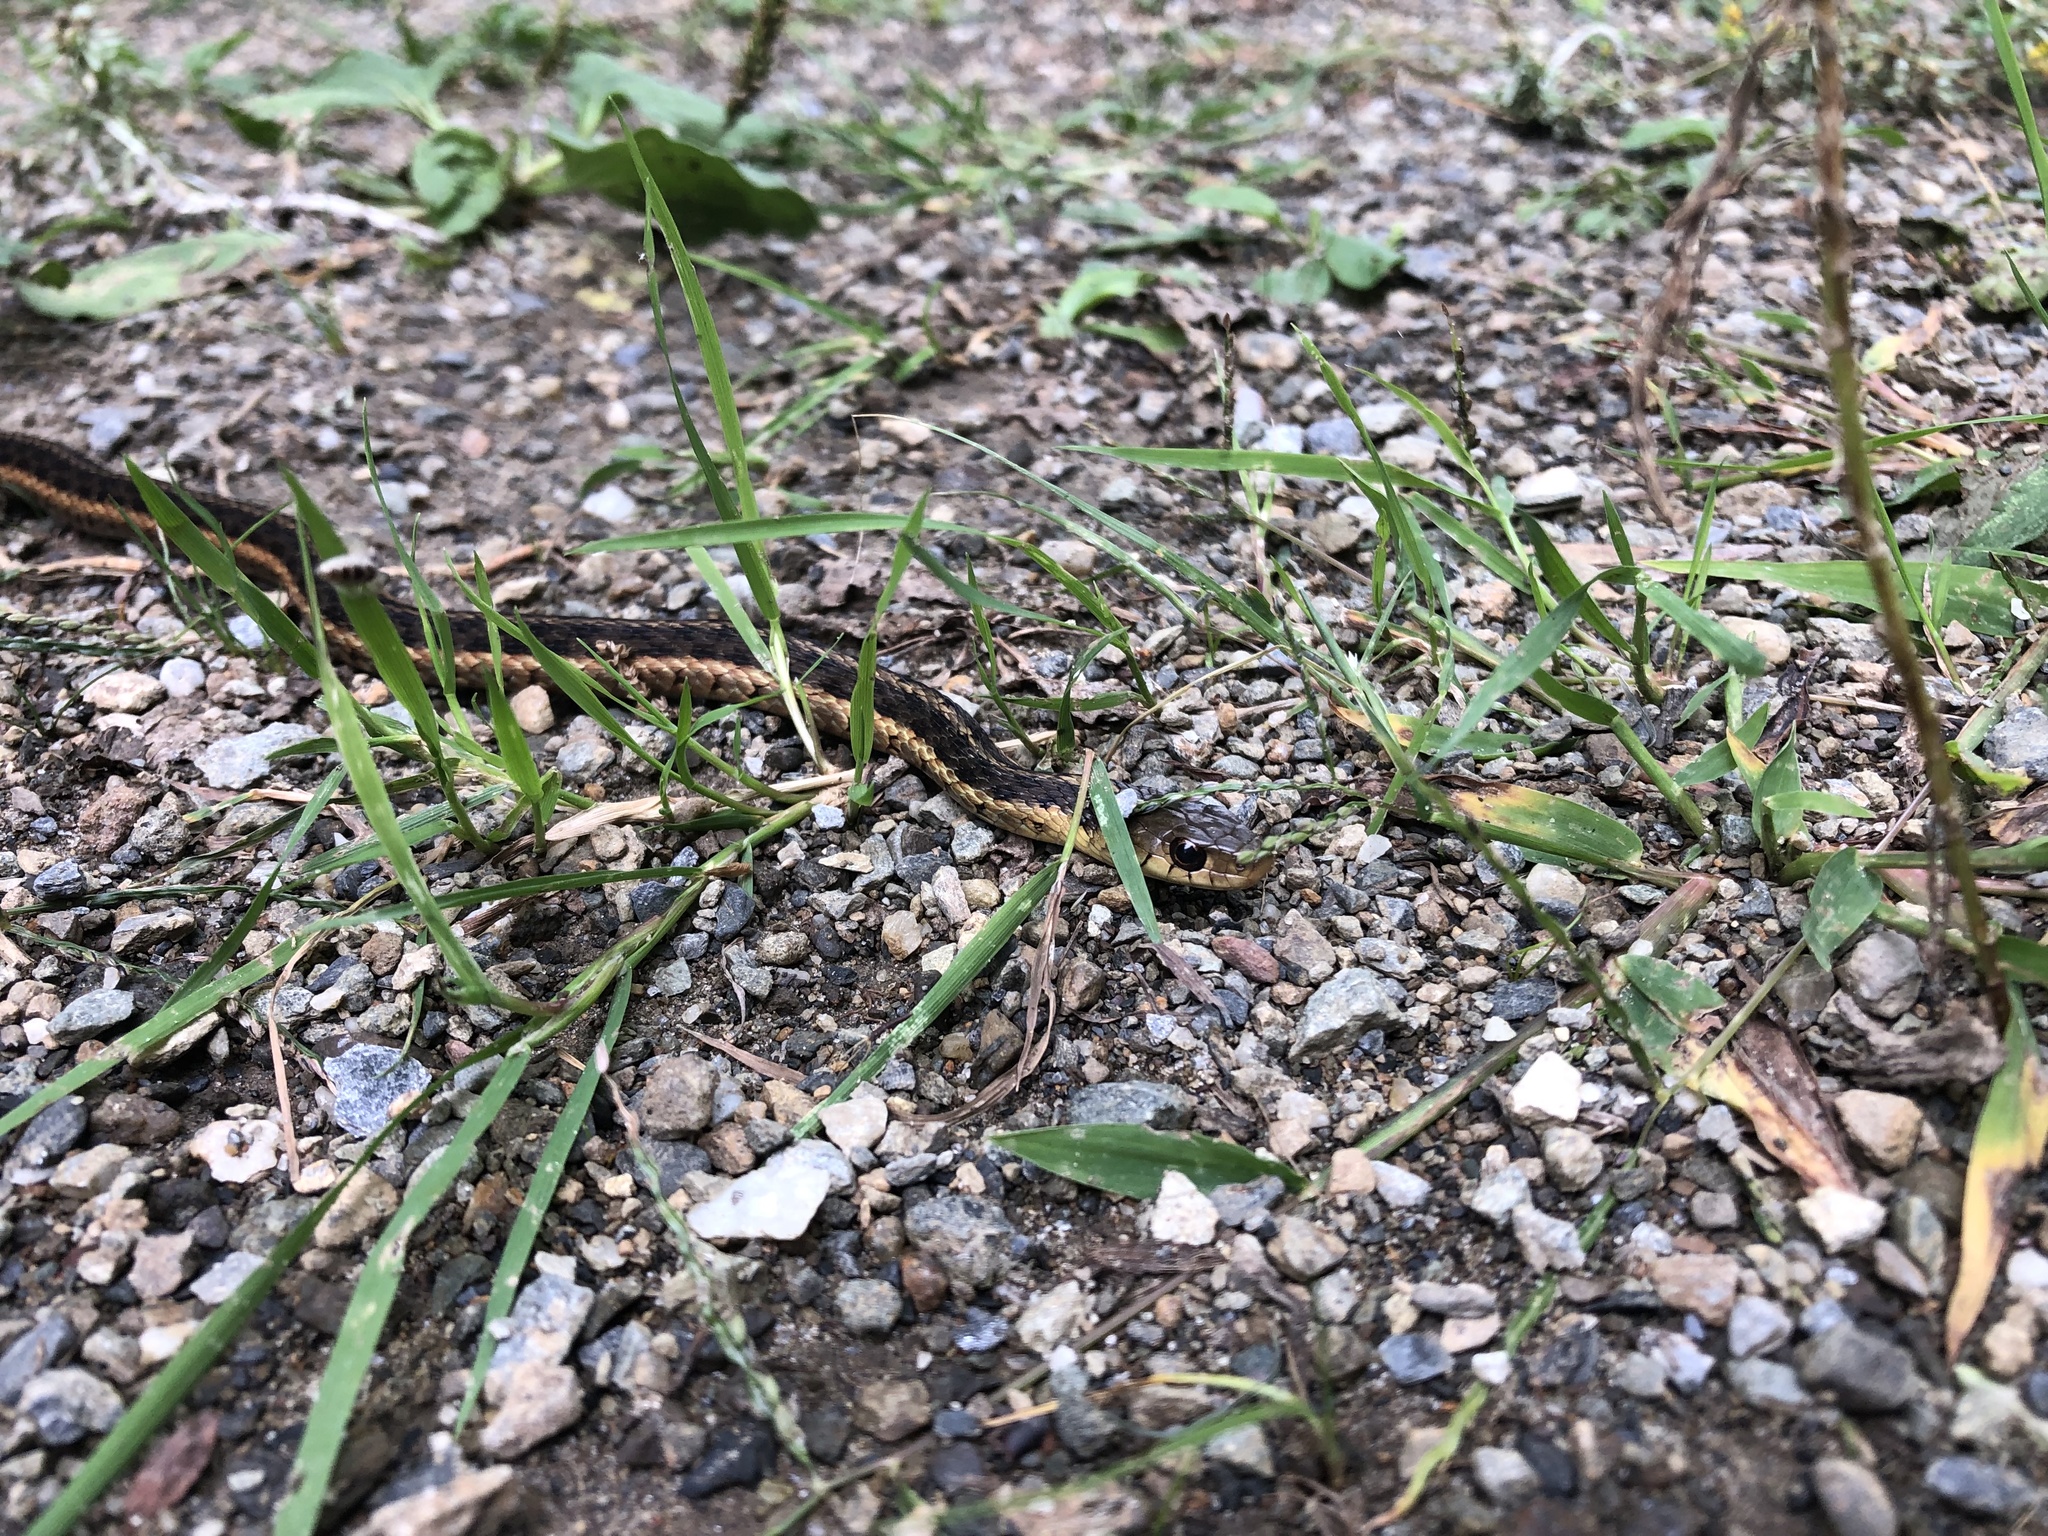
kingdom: Animalia
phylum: Chordata
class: Squamata
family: Colubridae
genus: Thamnophis
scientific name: Thamnophis sirtalis
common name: Common garter snake
